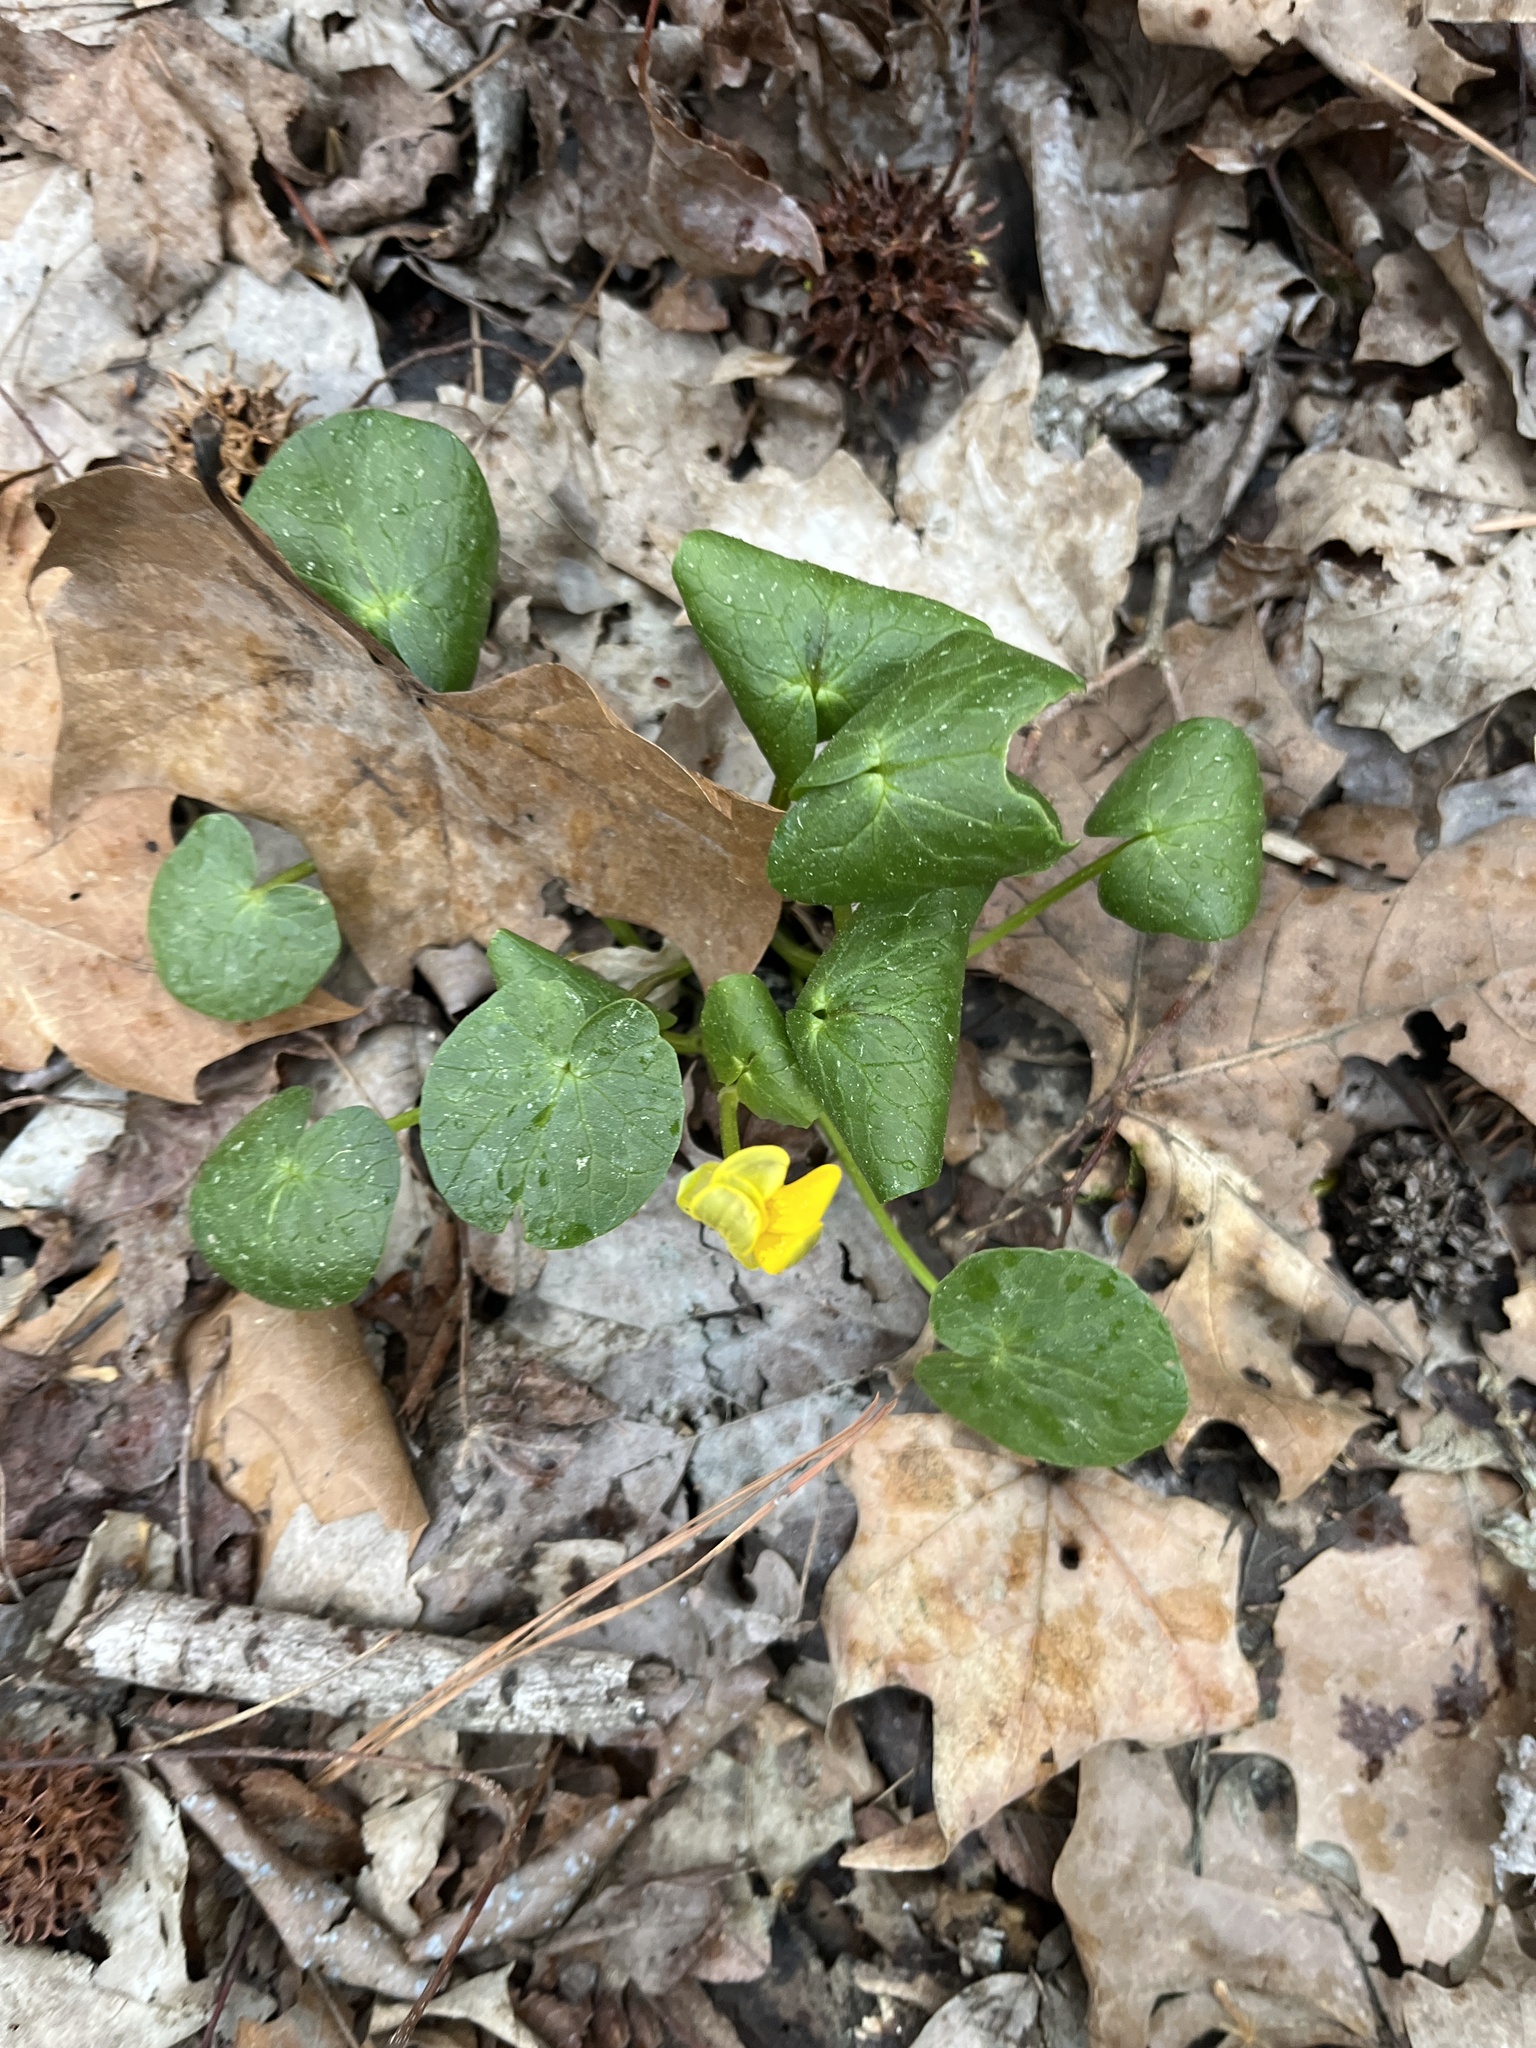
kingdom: Plantae
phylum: Tracheophyta
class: Magnoliopsida
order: Ranunculales
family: Ranunculaceae
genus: Ficaria
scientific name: Ficaria verna
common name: Lesser celandine
